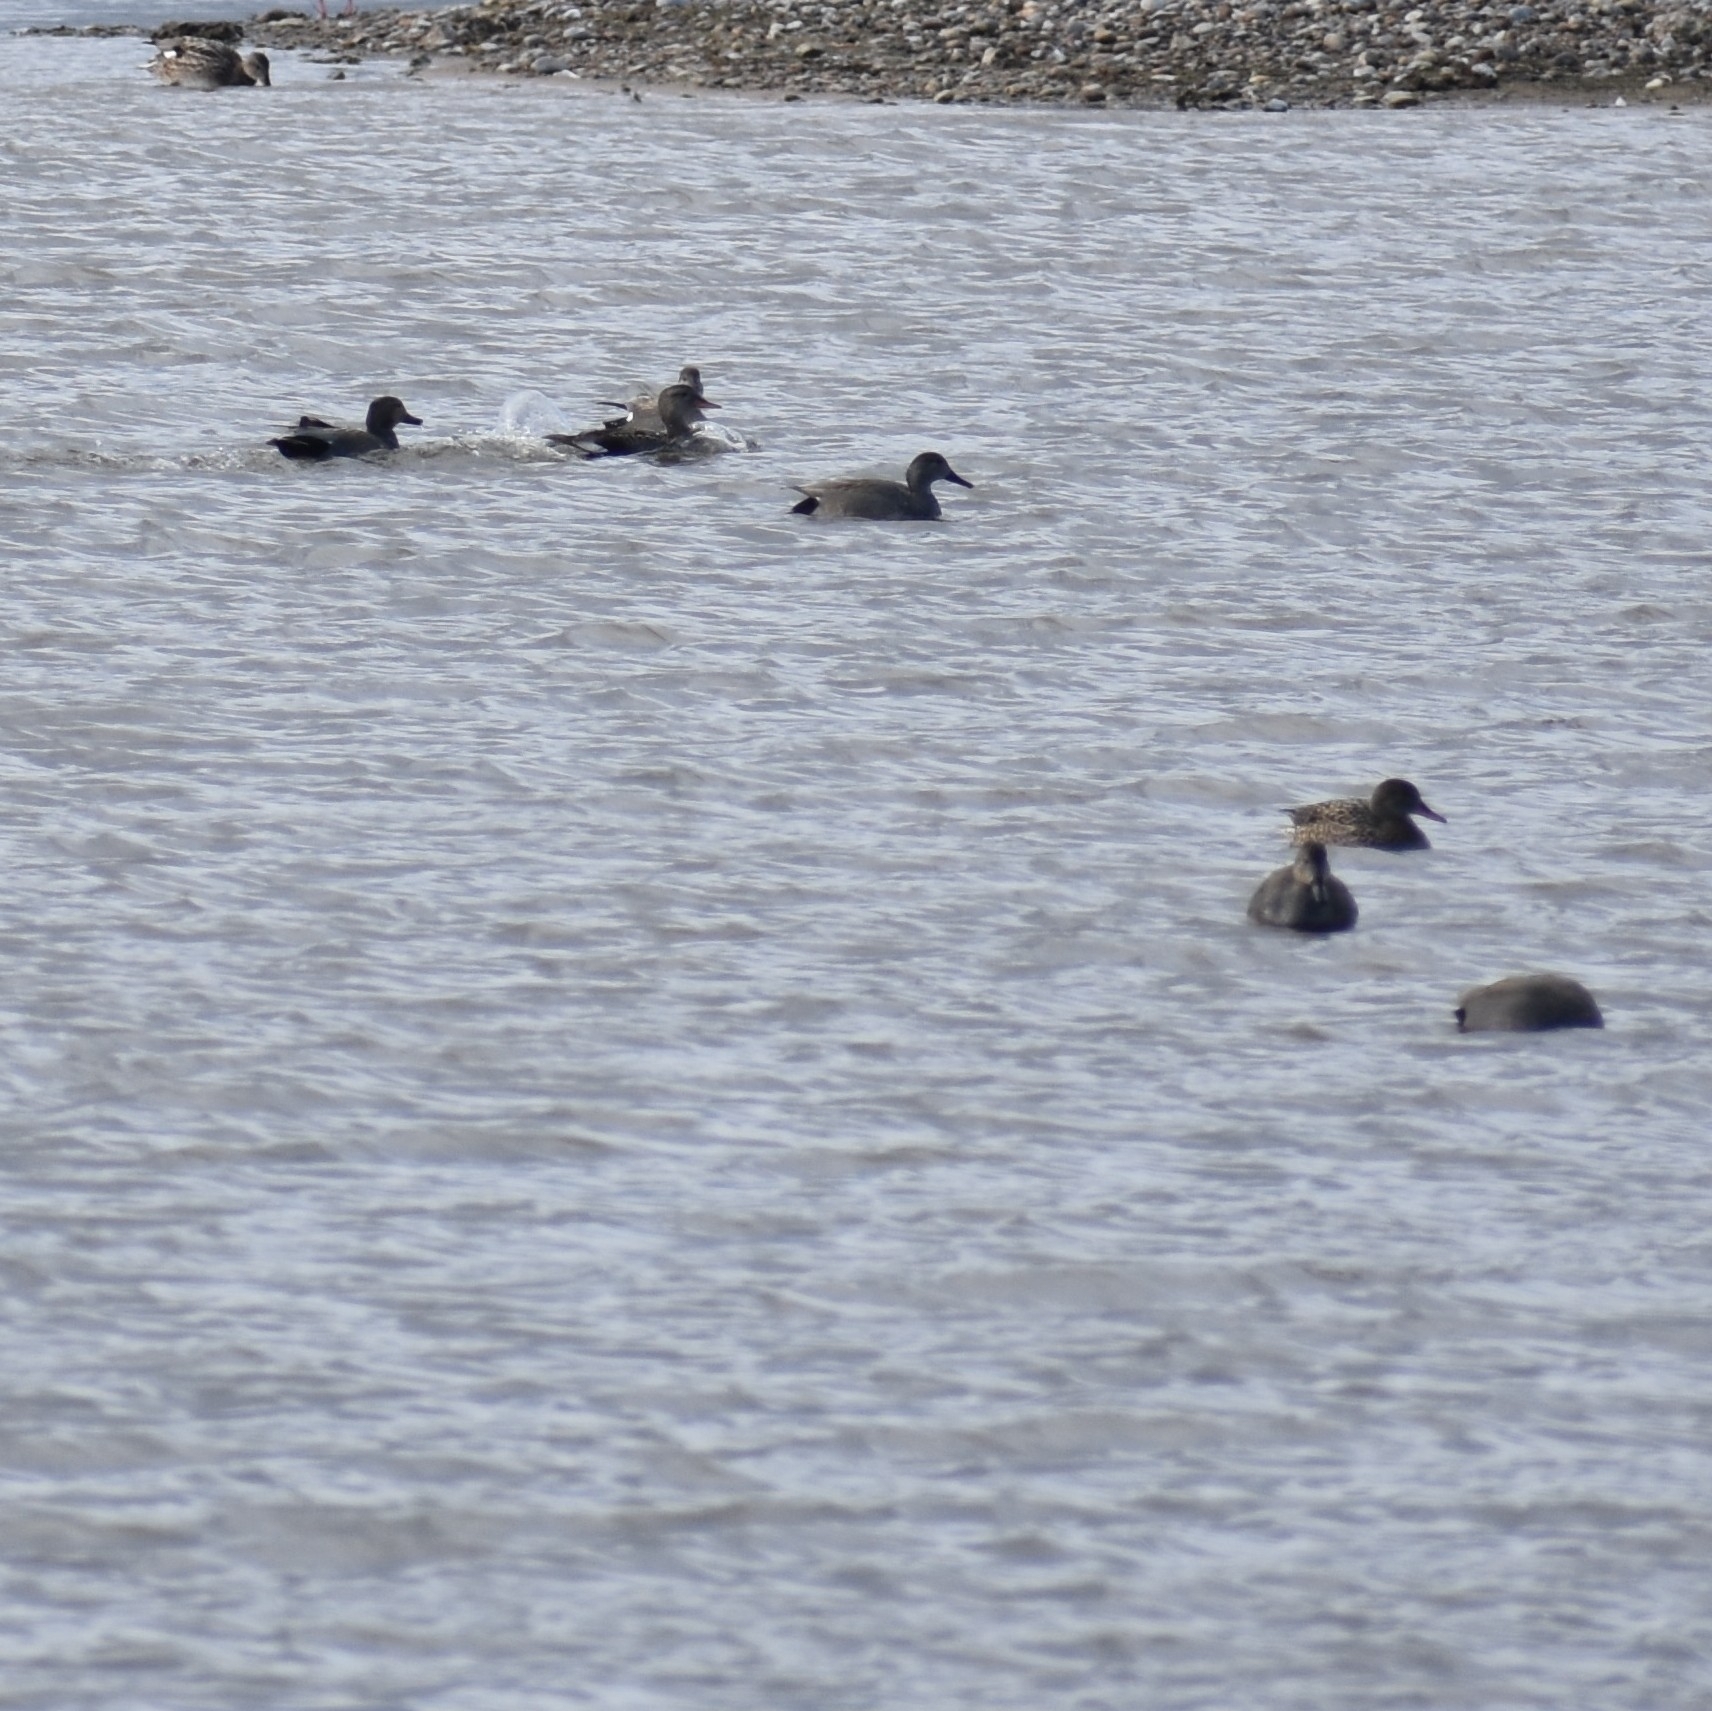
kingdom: Animalia
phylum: Chordata
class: Aves
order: Anseriformes
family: Anatidae
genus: Mareca
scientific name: Mareca strepera
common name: Gadwall
